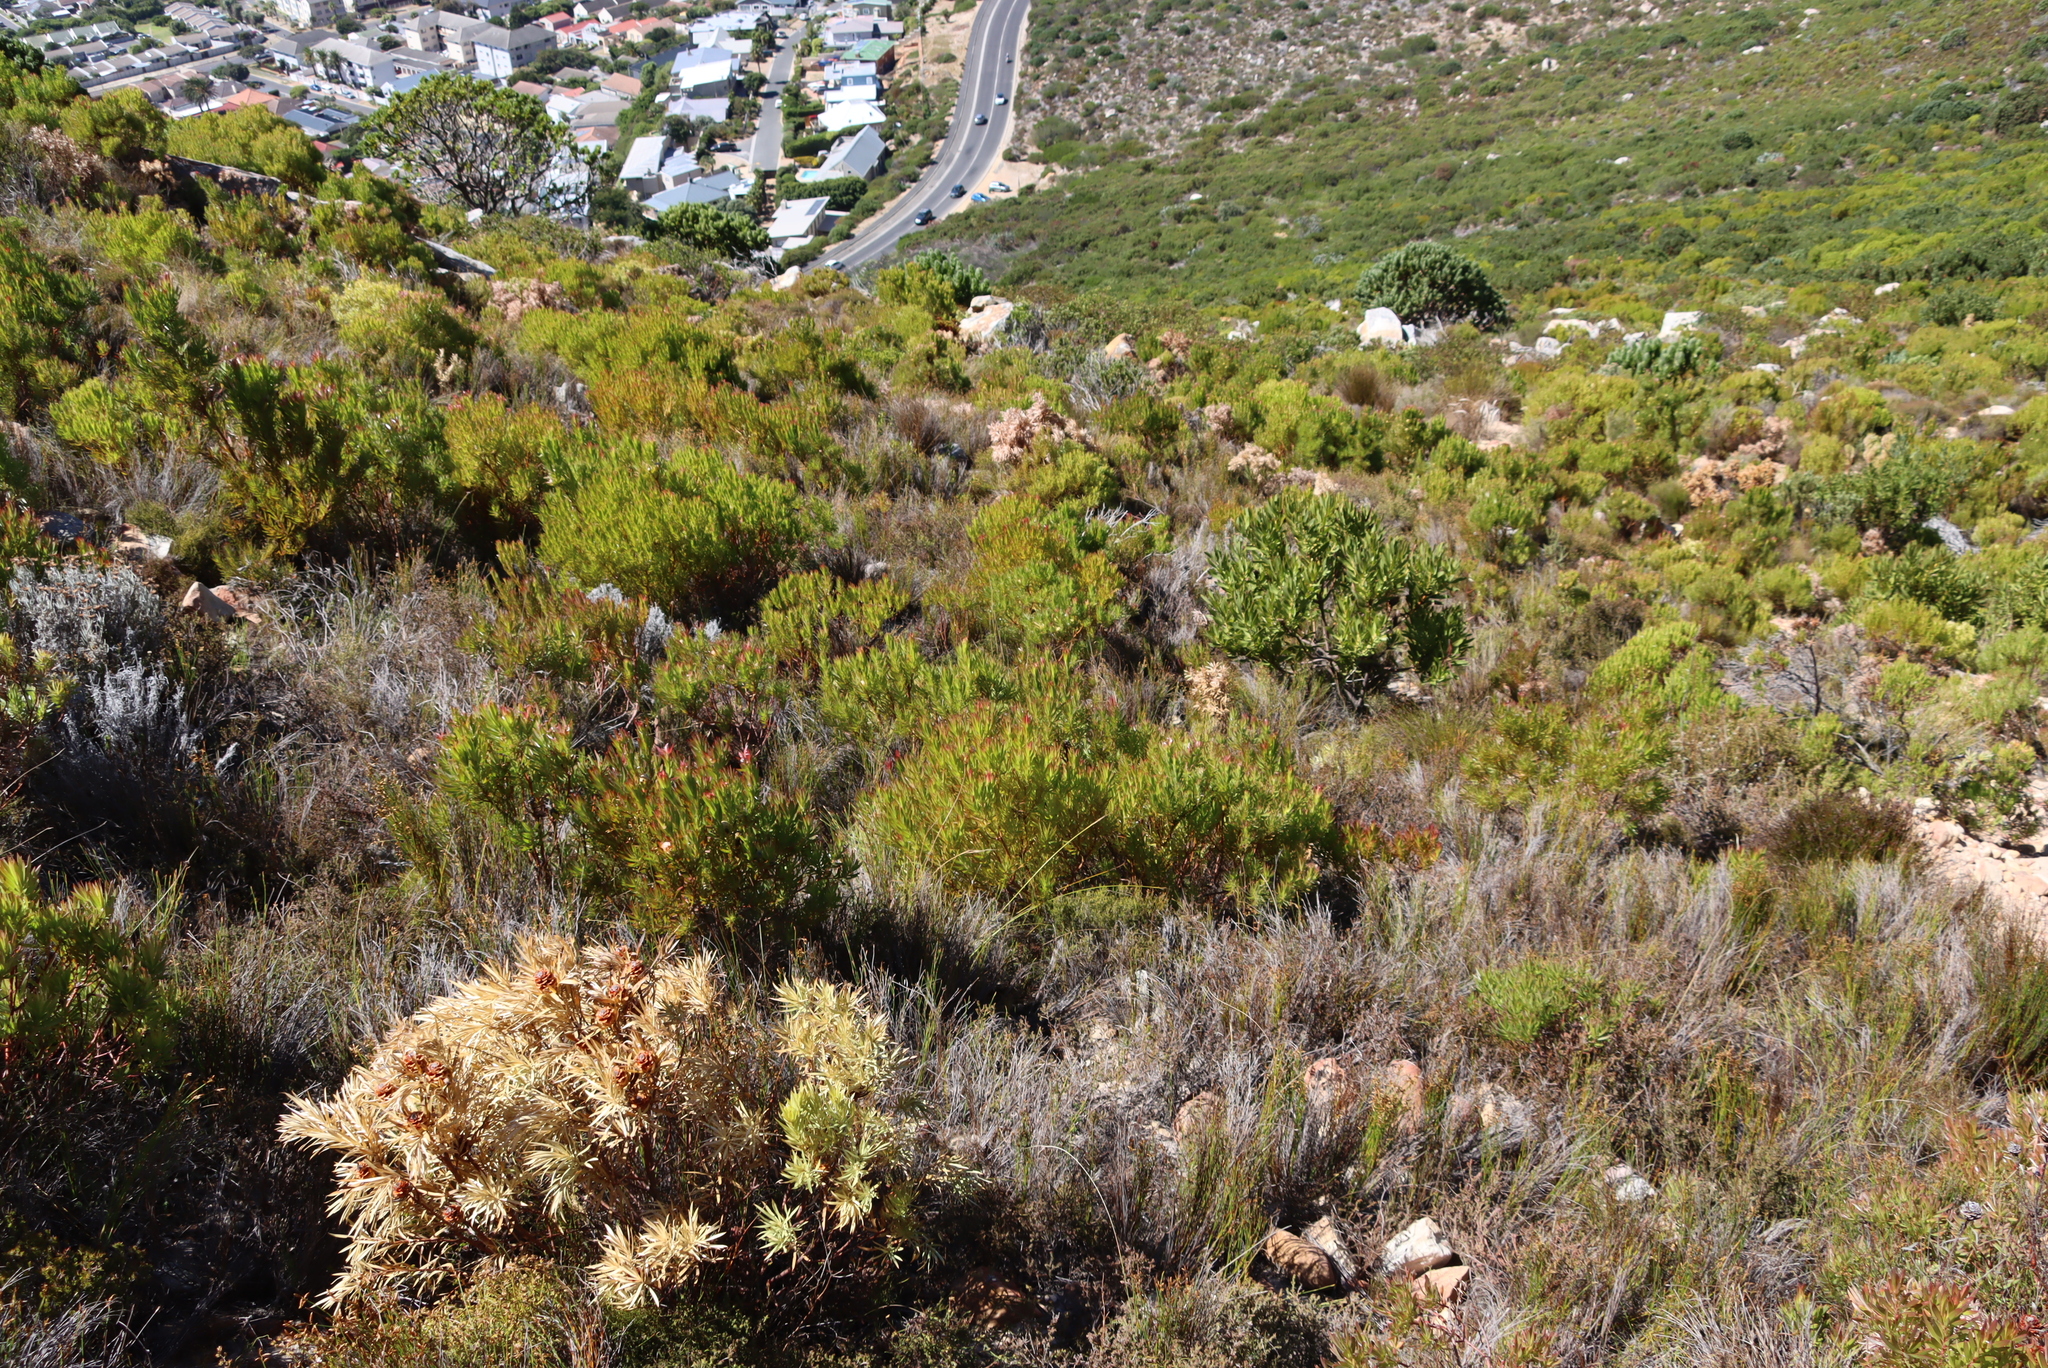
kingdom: Plantae
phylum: Tracheophyta
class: Magnoliopsida
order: Proteales
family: Proteaceae
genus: Leucadendron
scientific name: Leucadendron xanthoconus
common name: Sickle-leaf conebush
